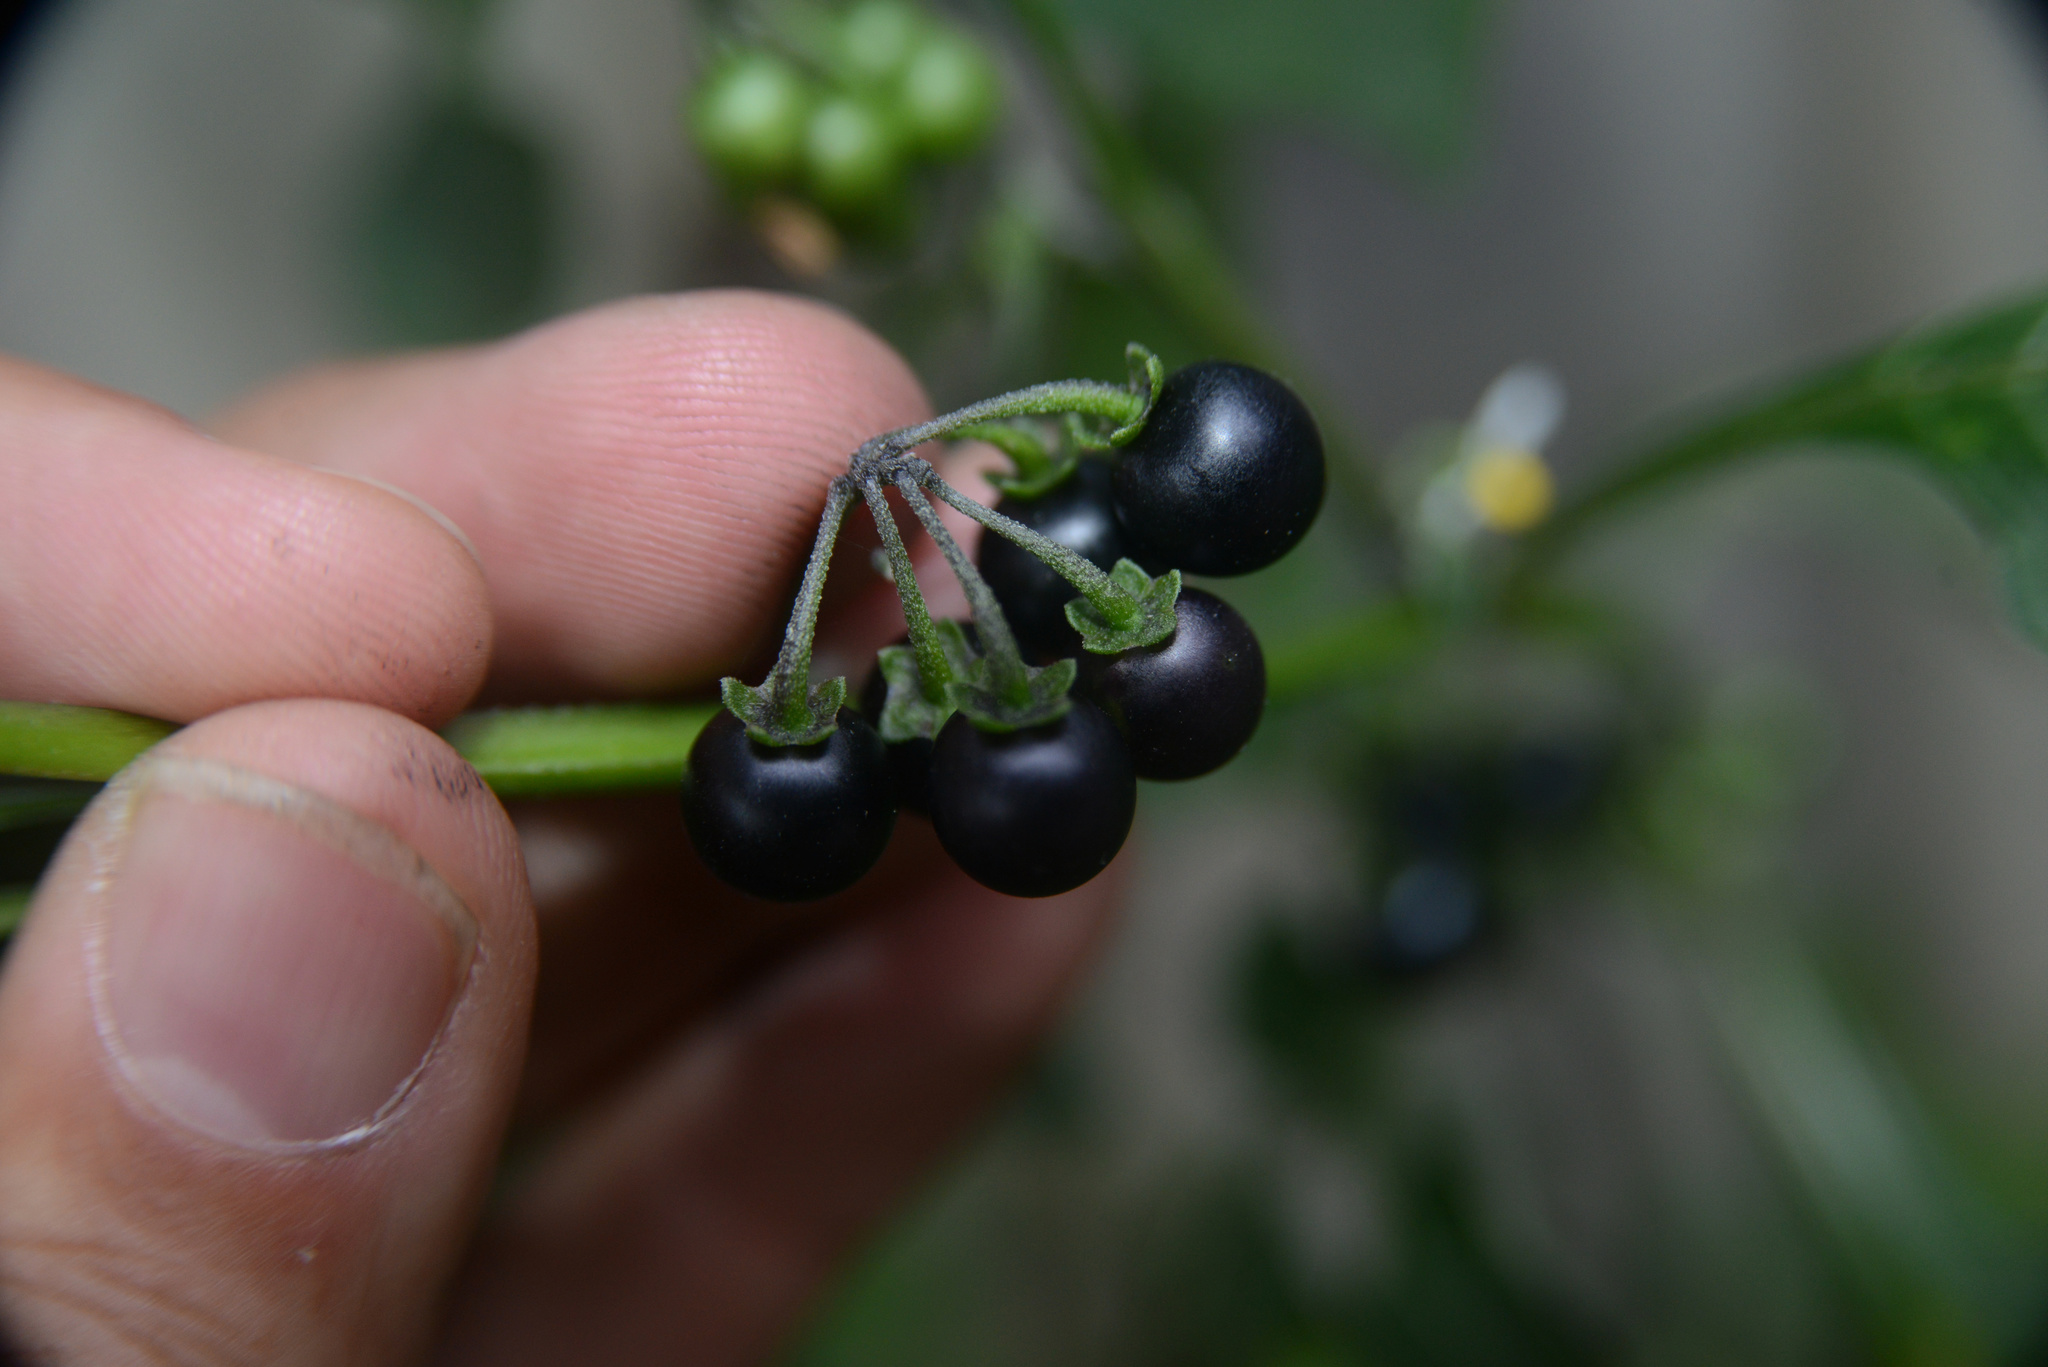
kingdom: Plantae
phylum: Tracheophyta
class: Magnoliopsida
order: Solanales
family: Solanaceae
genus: Solanum
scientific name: Solanum nigrum
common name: Black nightshade
